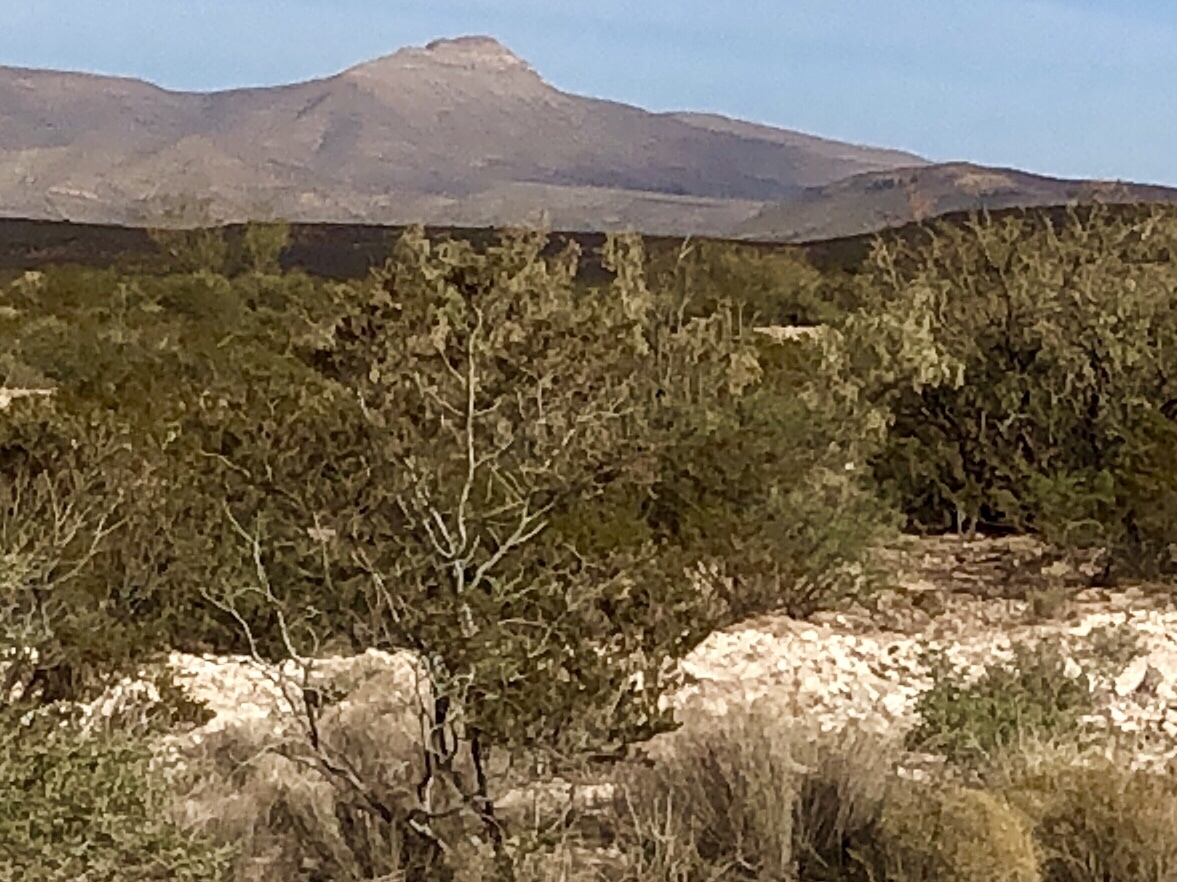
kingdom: Plantae
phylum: Tracheophyta
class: Magnoliopsida
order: Zygophyllales
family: Zygophyllaceae
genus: Larrea
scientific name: Larrea tridentata
